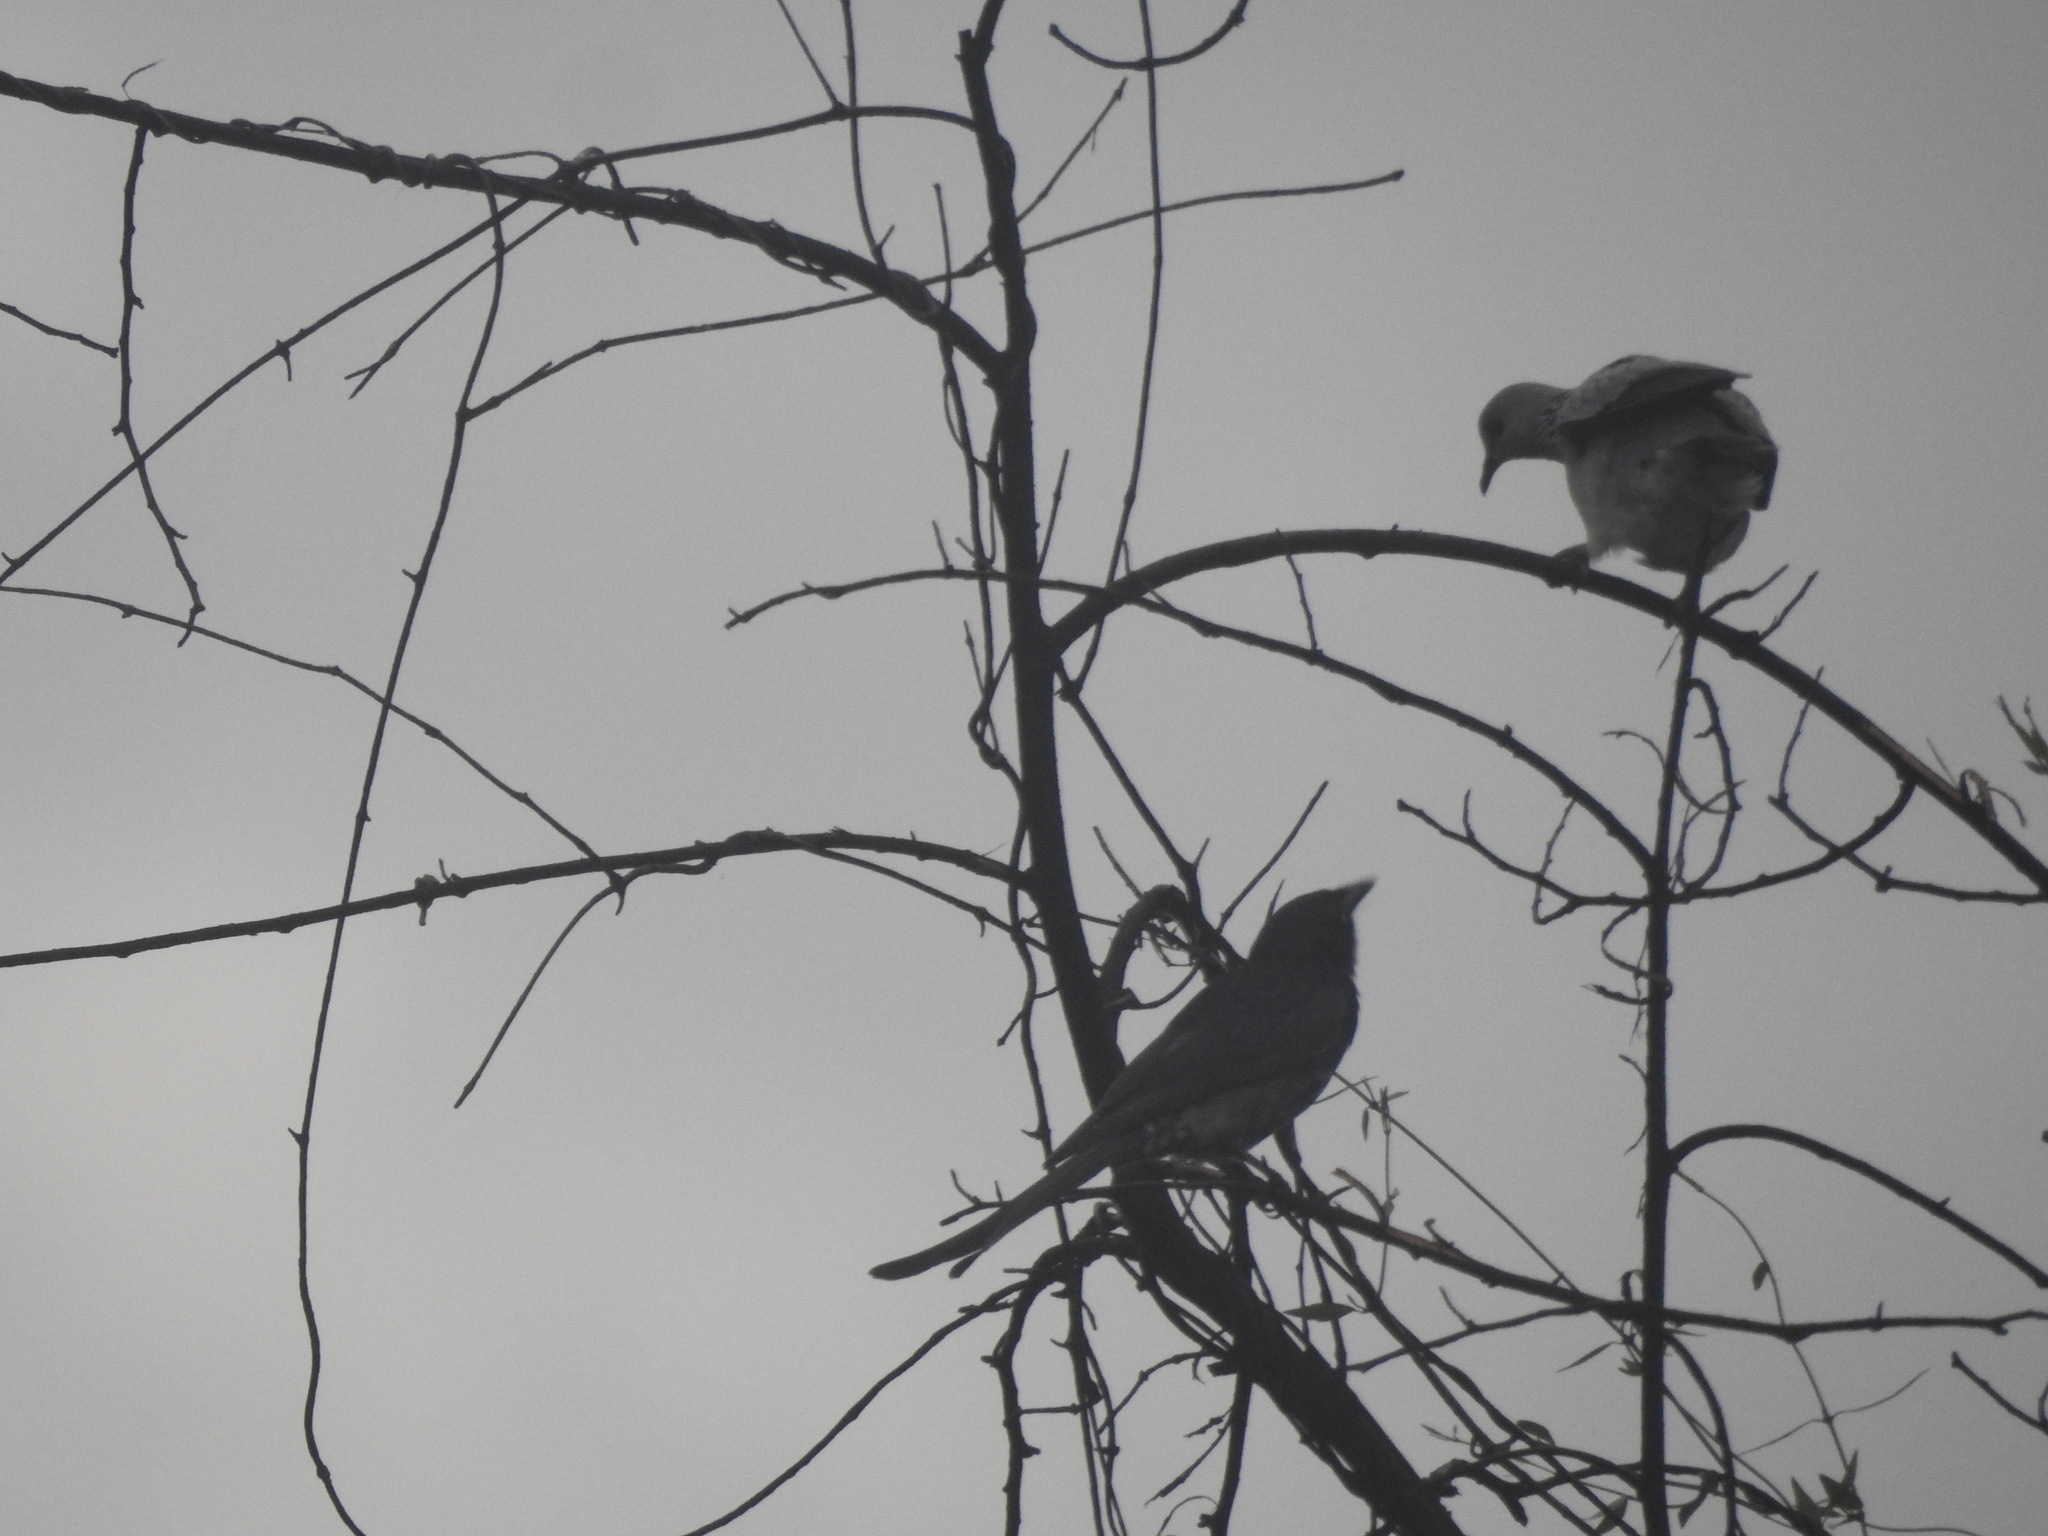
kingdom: Animalia
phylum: Chordata
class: Aves
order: Columbiformes
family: Columbidae
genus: Spilopelia
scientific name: Spilopelia chinensis
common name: Spotted dove
